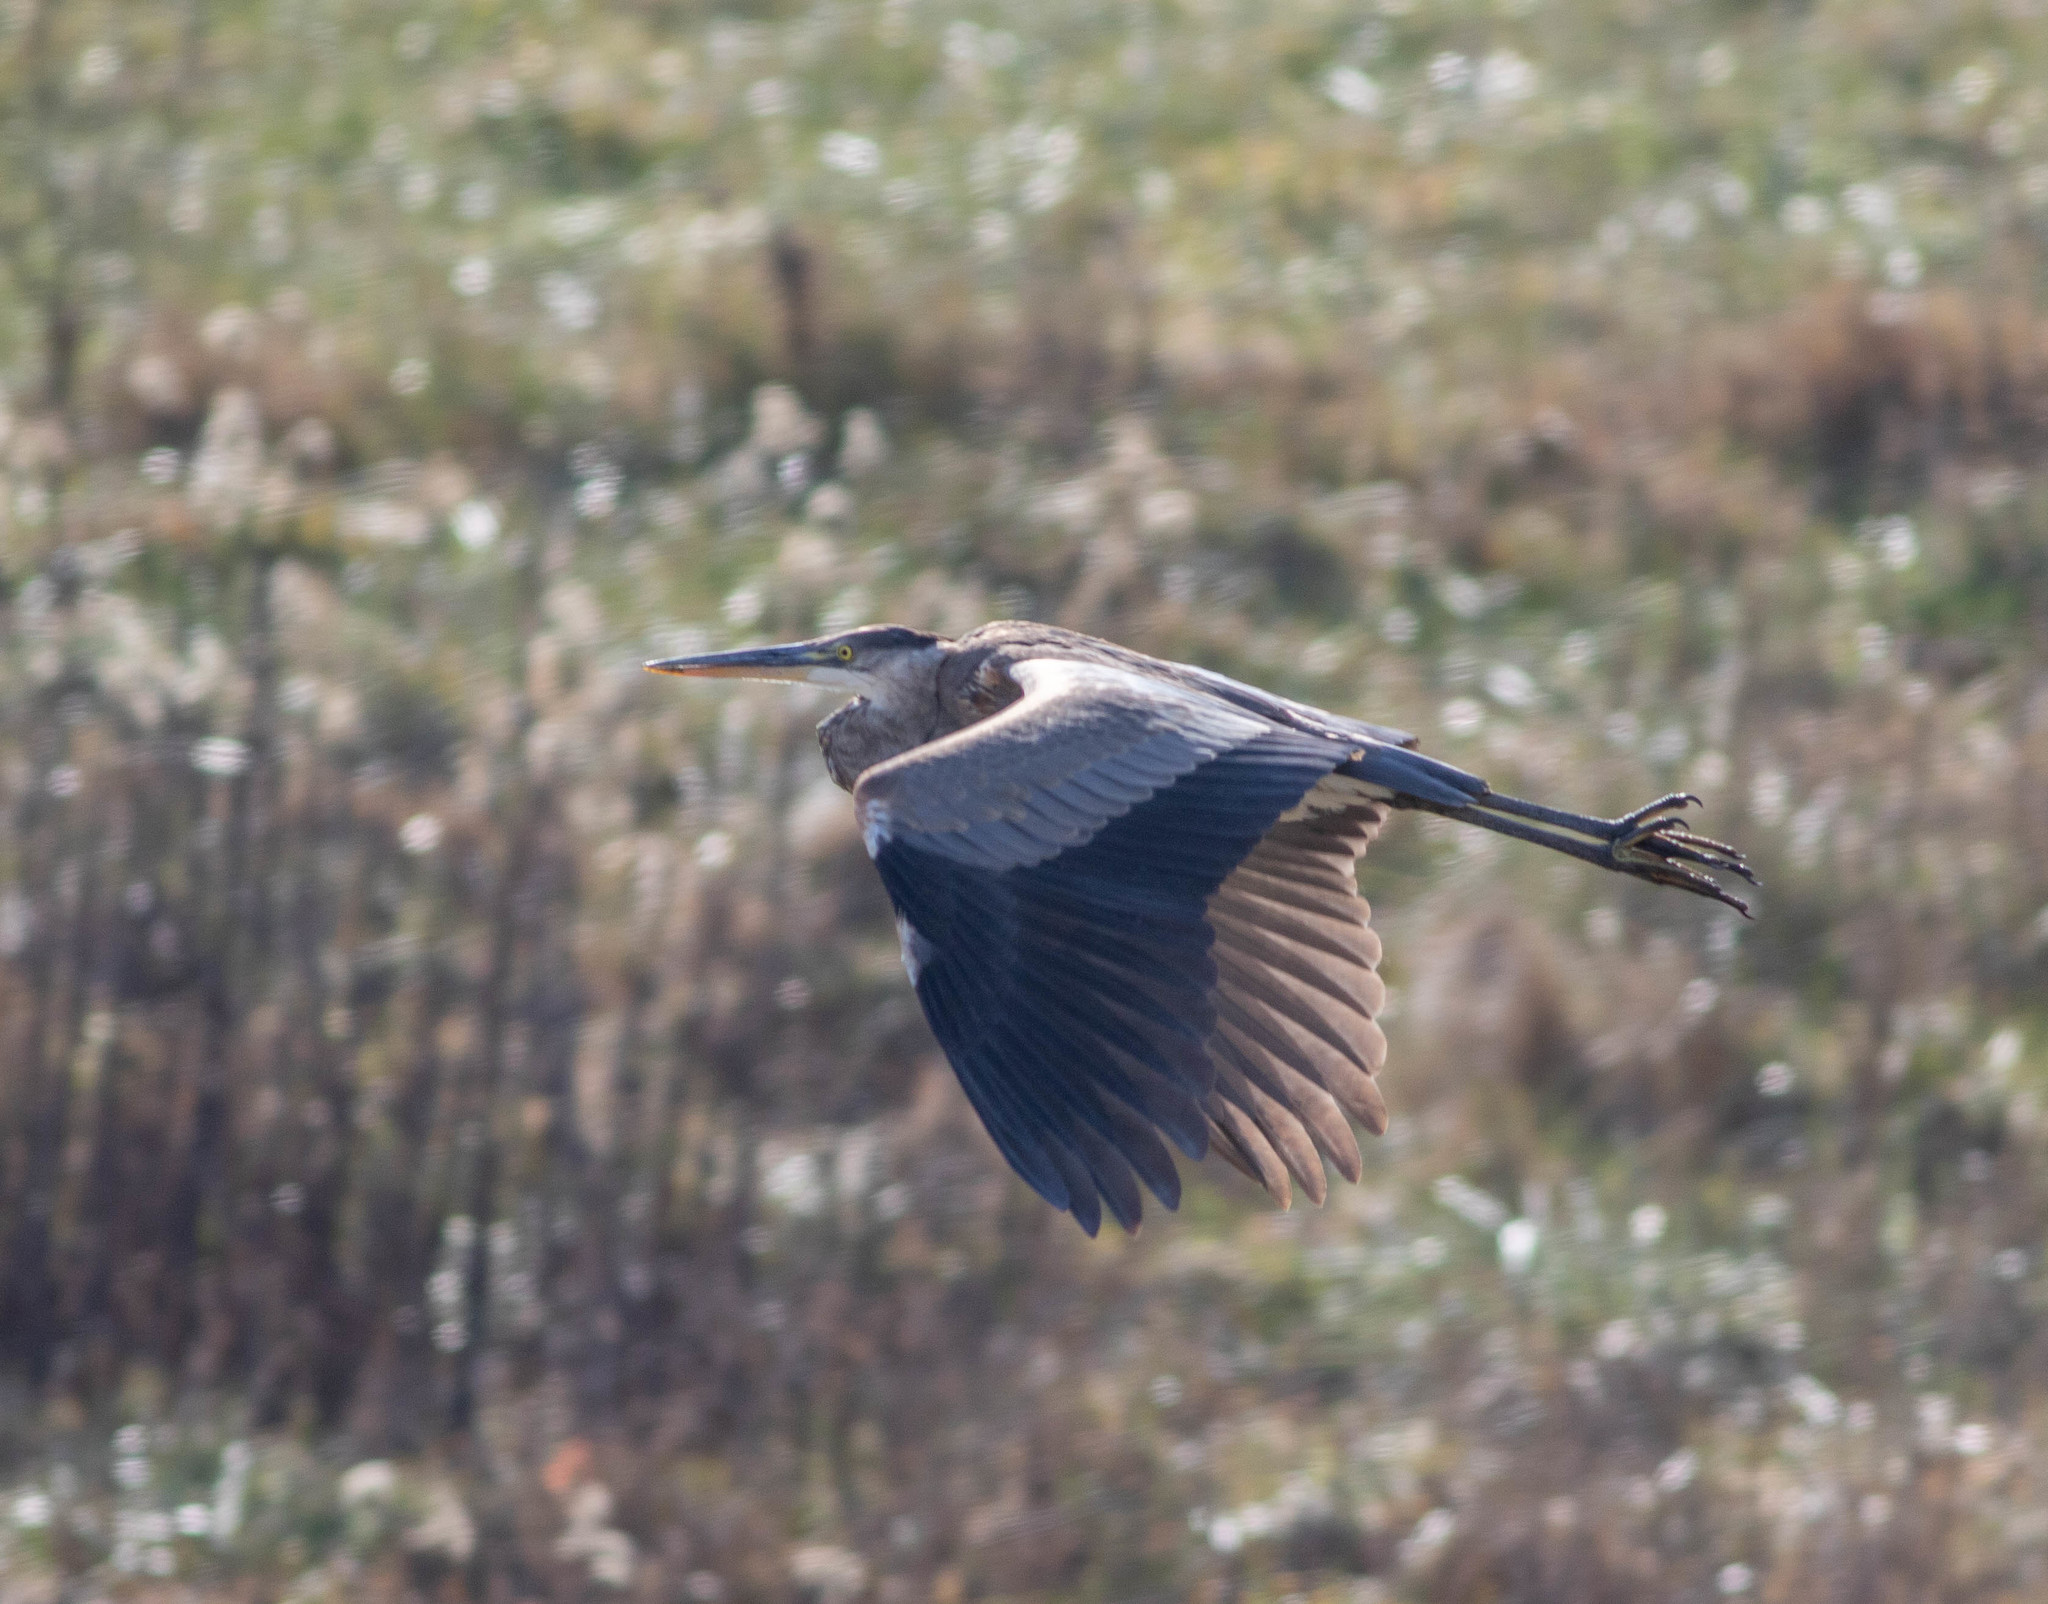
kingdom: Animalia
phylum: Chordata
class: Aves
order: Pelecaniformes
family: Ardeidae
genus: Ardea
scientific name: Ardea herodias
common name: Great blue heron
